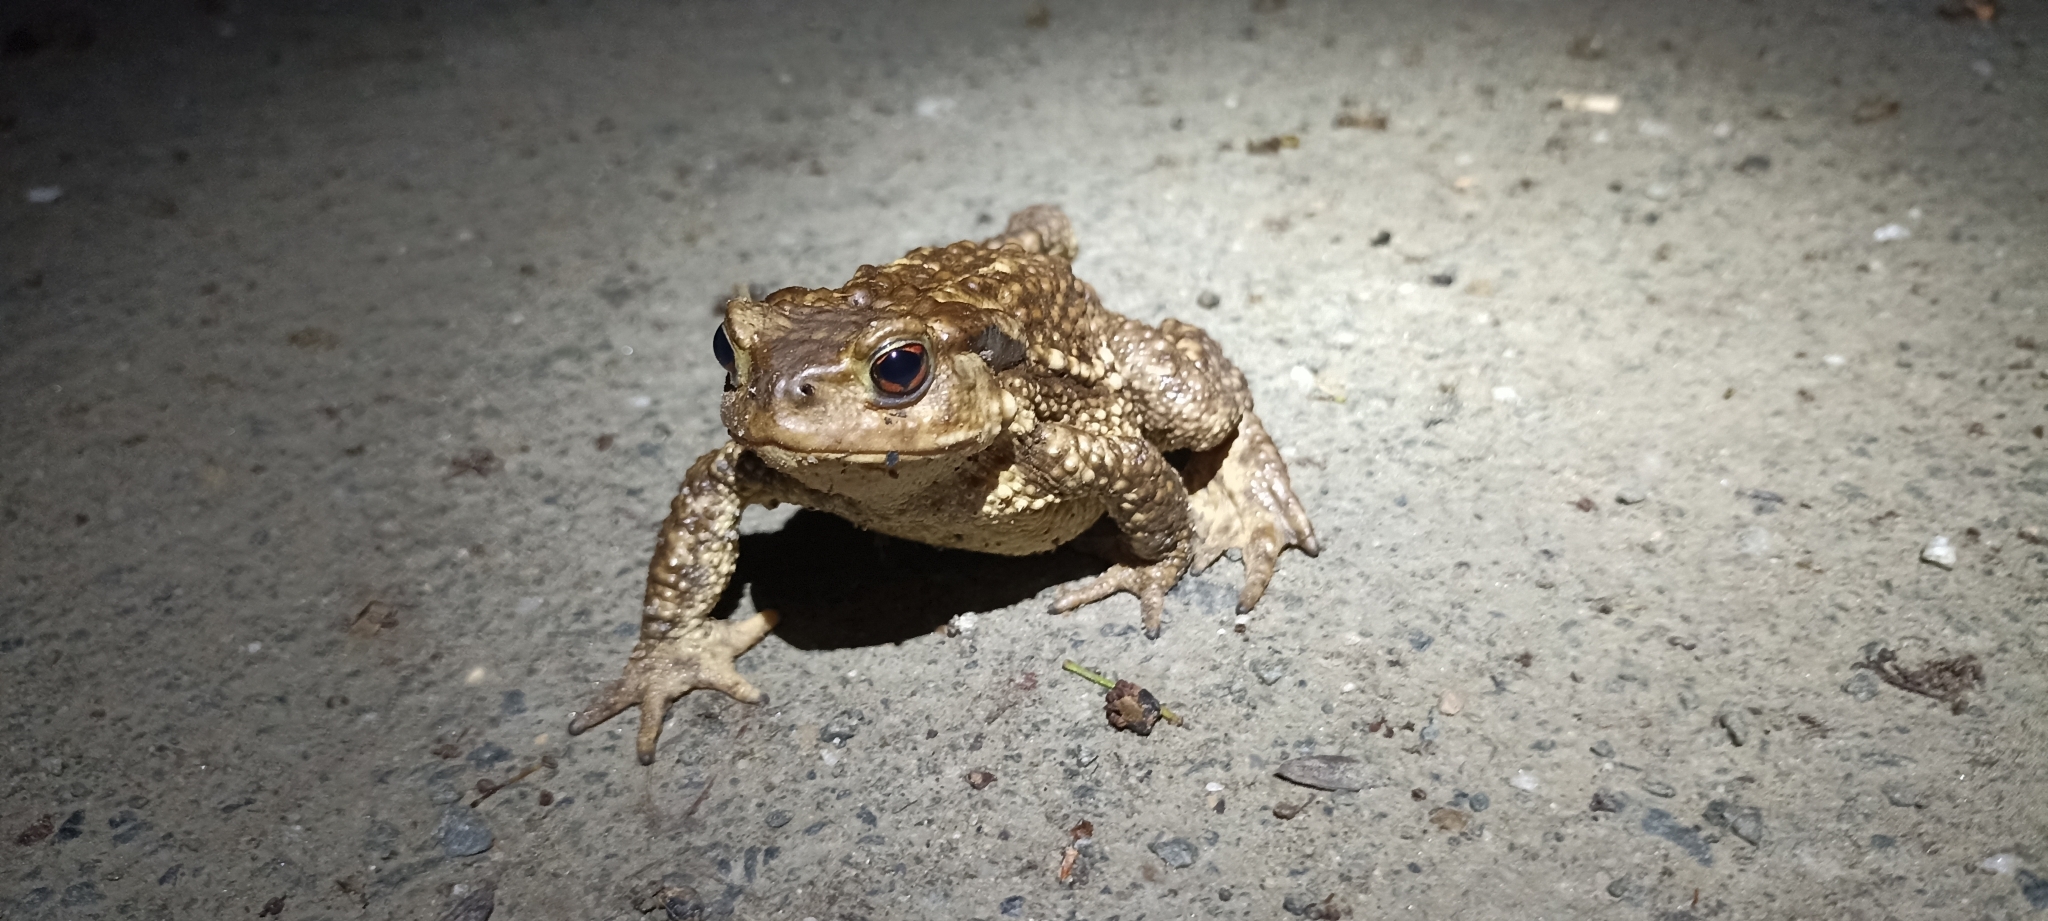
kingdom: Animalia
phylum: Chordata
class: Amphibia
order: Anura
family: Bufonidae
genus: Bufo
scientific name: Bufo spinosus
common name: Western common toad
